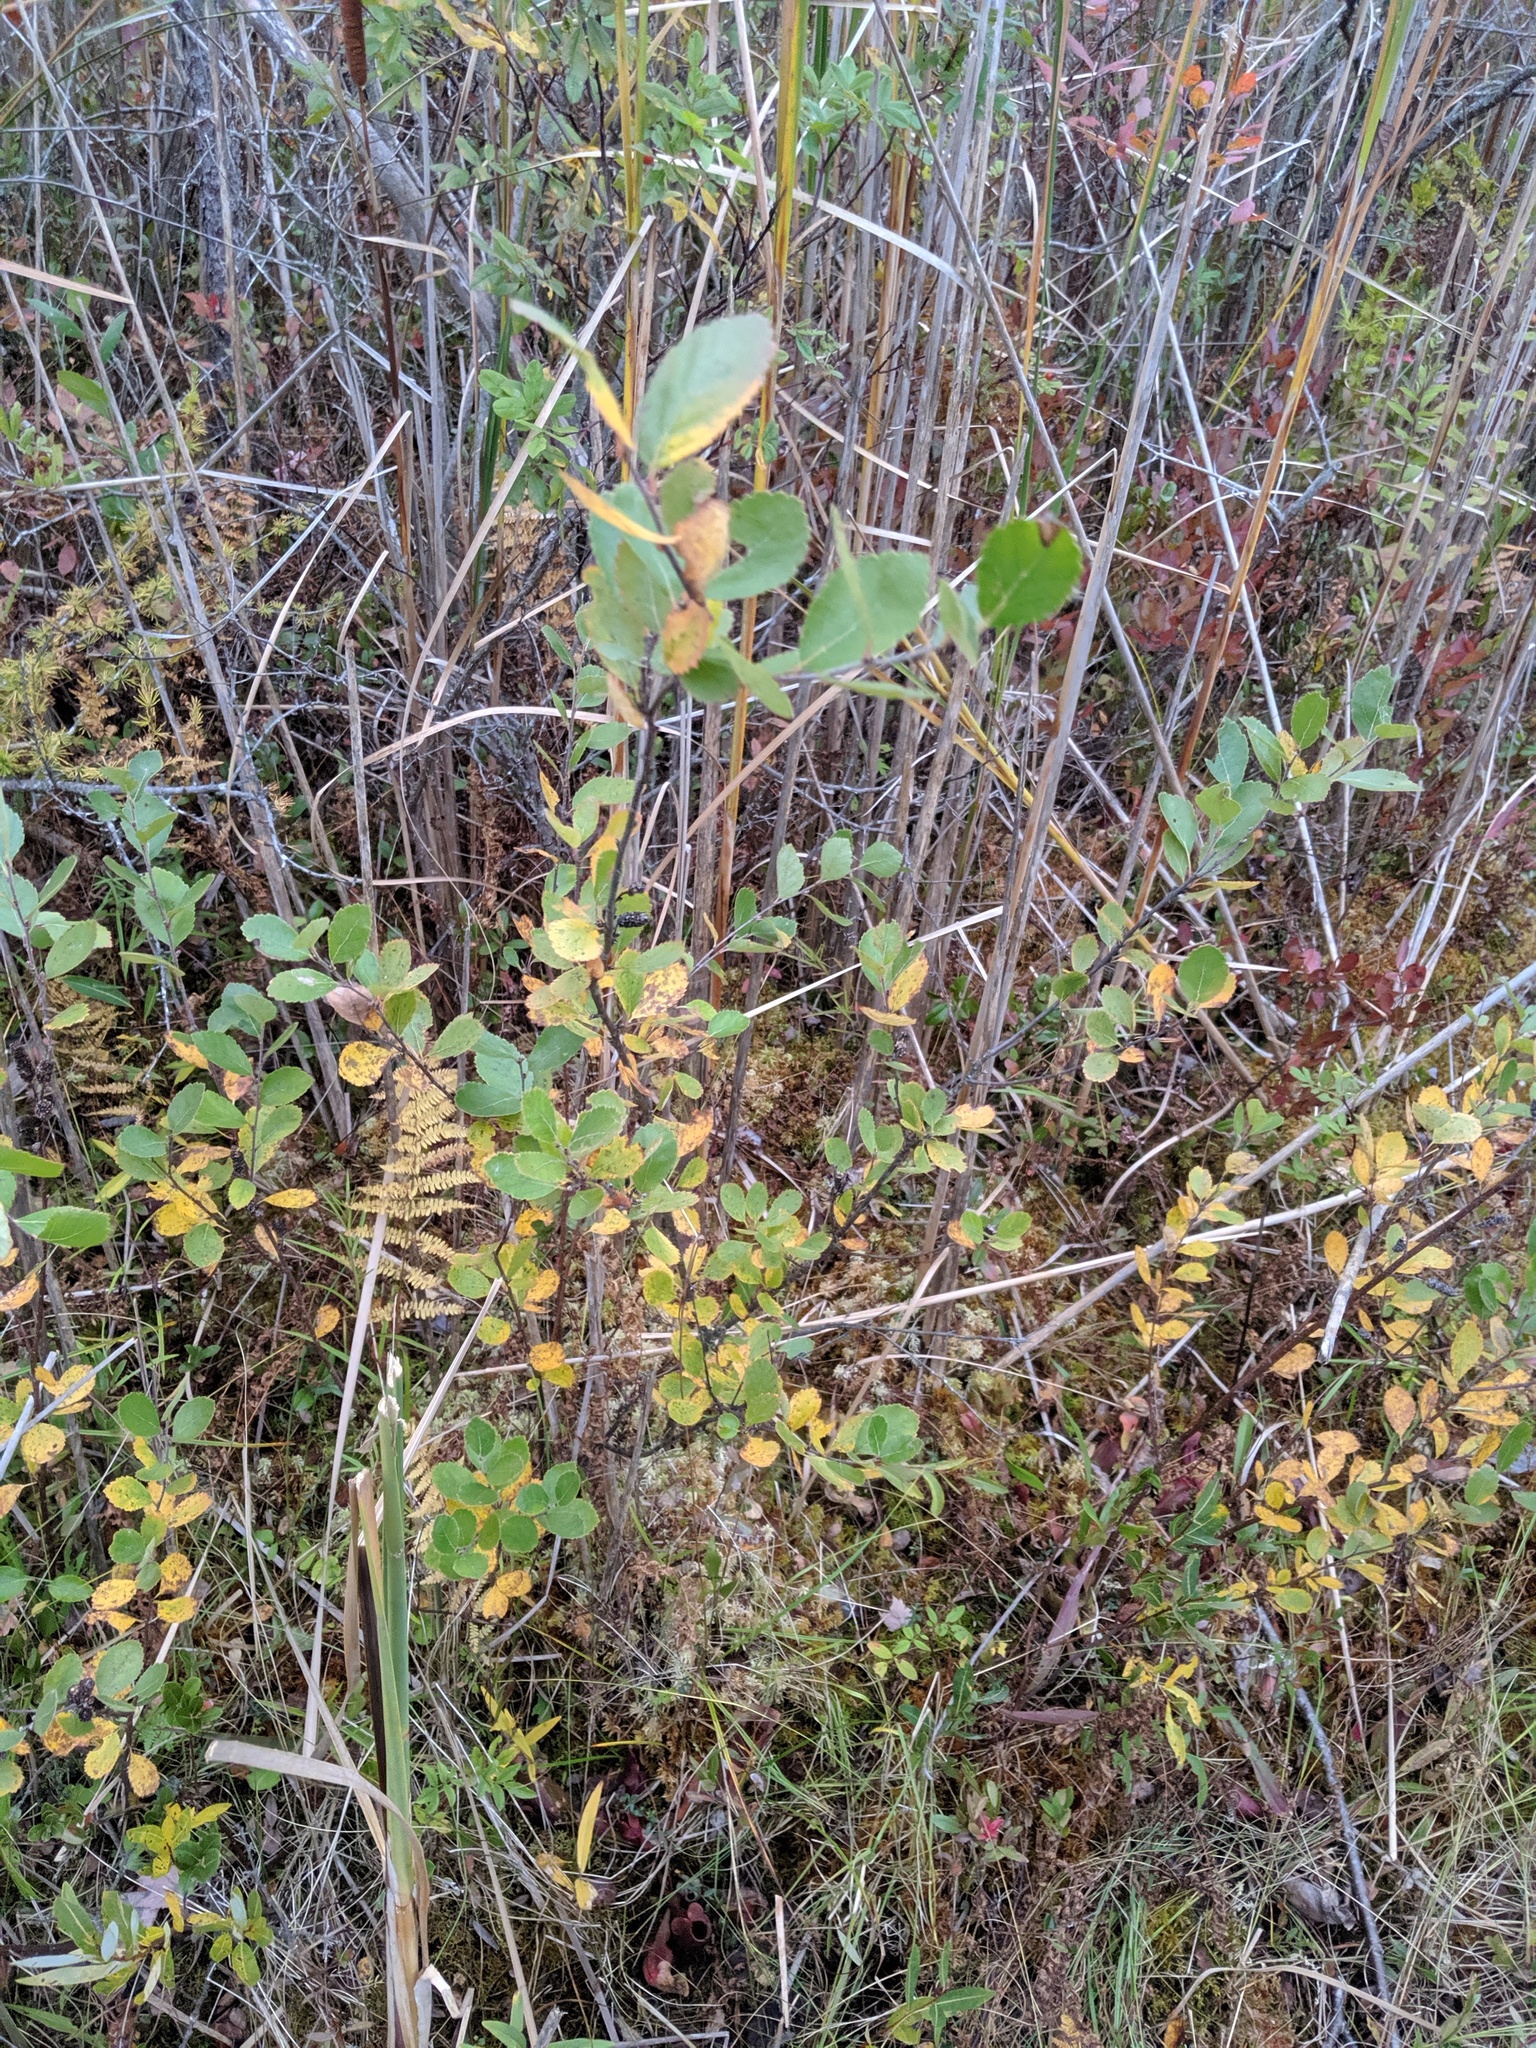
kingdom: Plantae
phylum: Tracheophyta
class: Magnoliopsida
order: Fagales
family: Betulaceae
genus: Betula
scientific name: Betula pumila
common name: Bog birch
